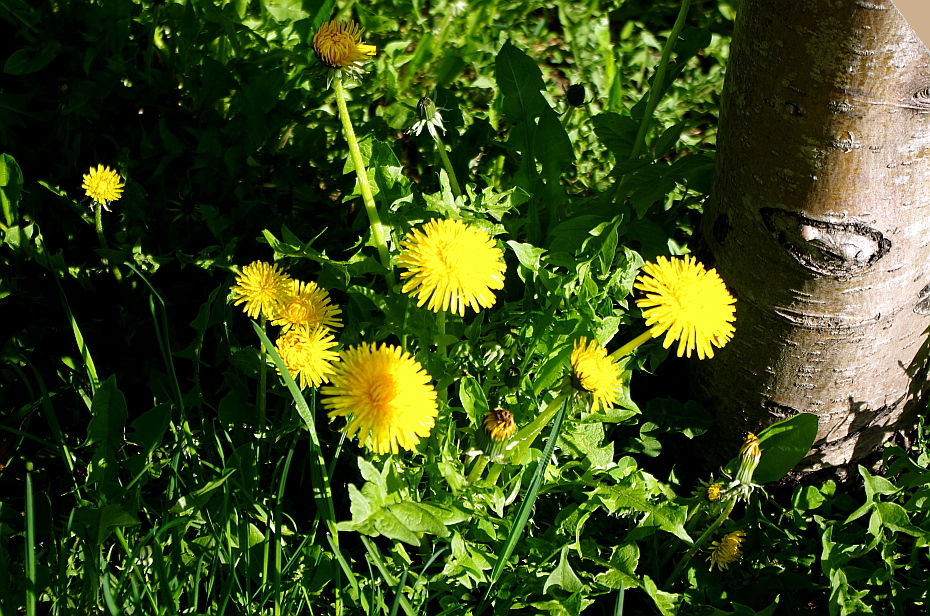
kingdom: Plantae
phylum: Tracheophyta
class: Magnoliopsida
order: Asterales
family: Asteraceae
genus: Taraxacum
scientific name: Taraxacum officinale
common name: Common dandelion
